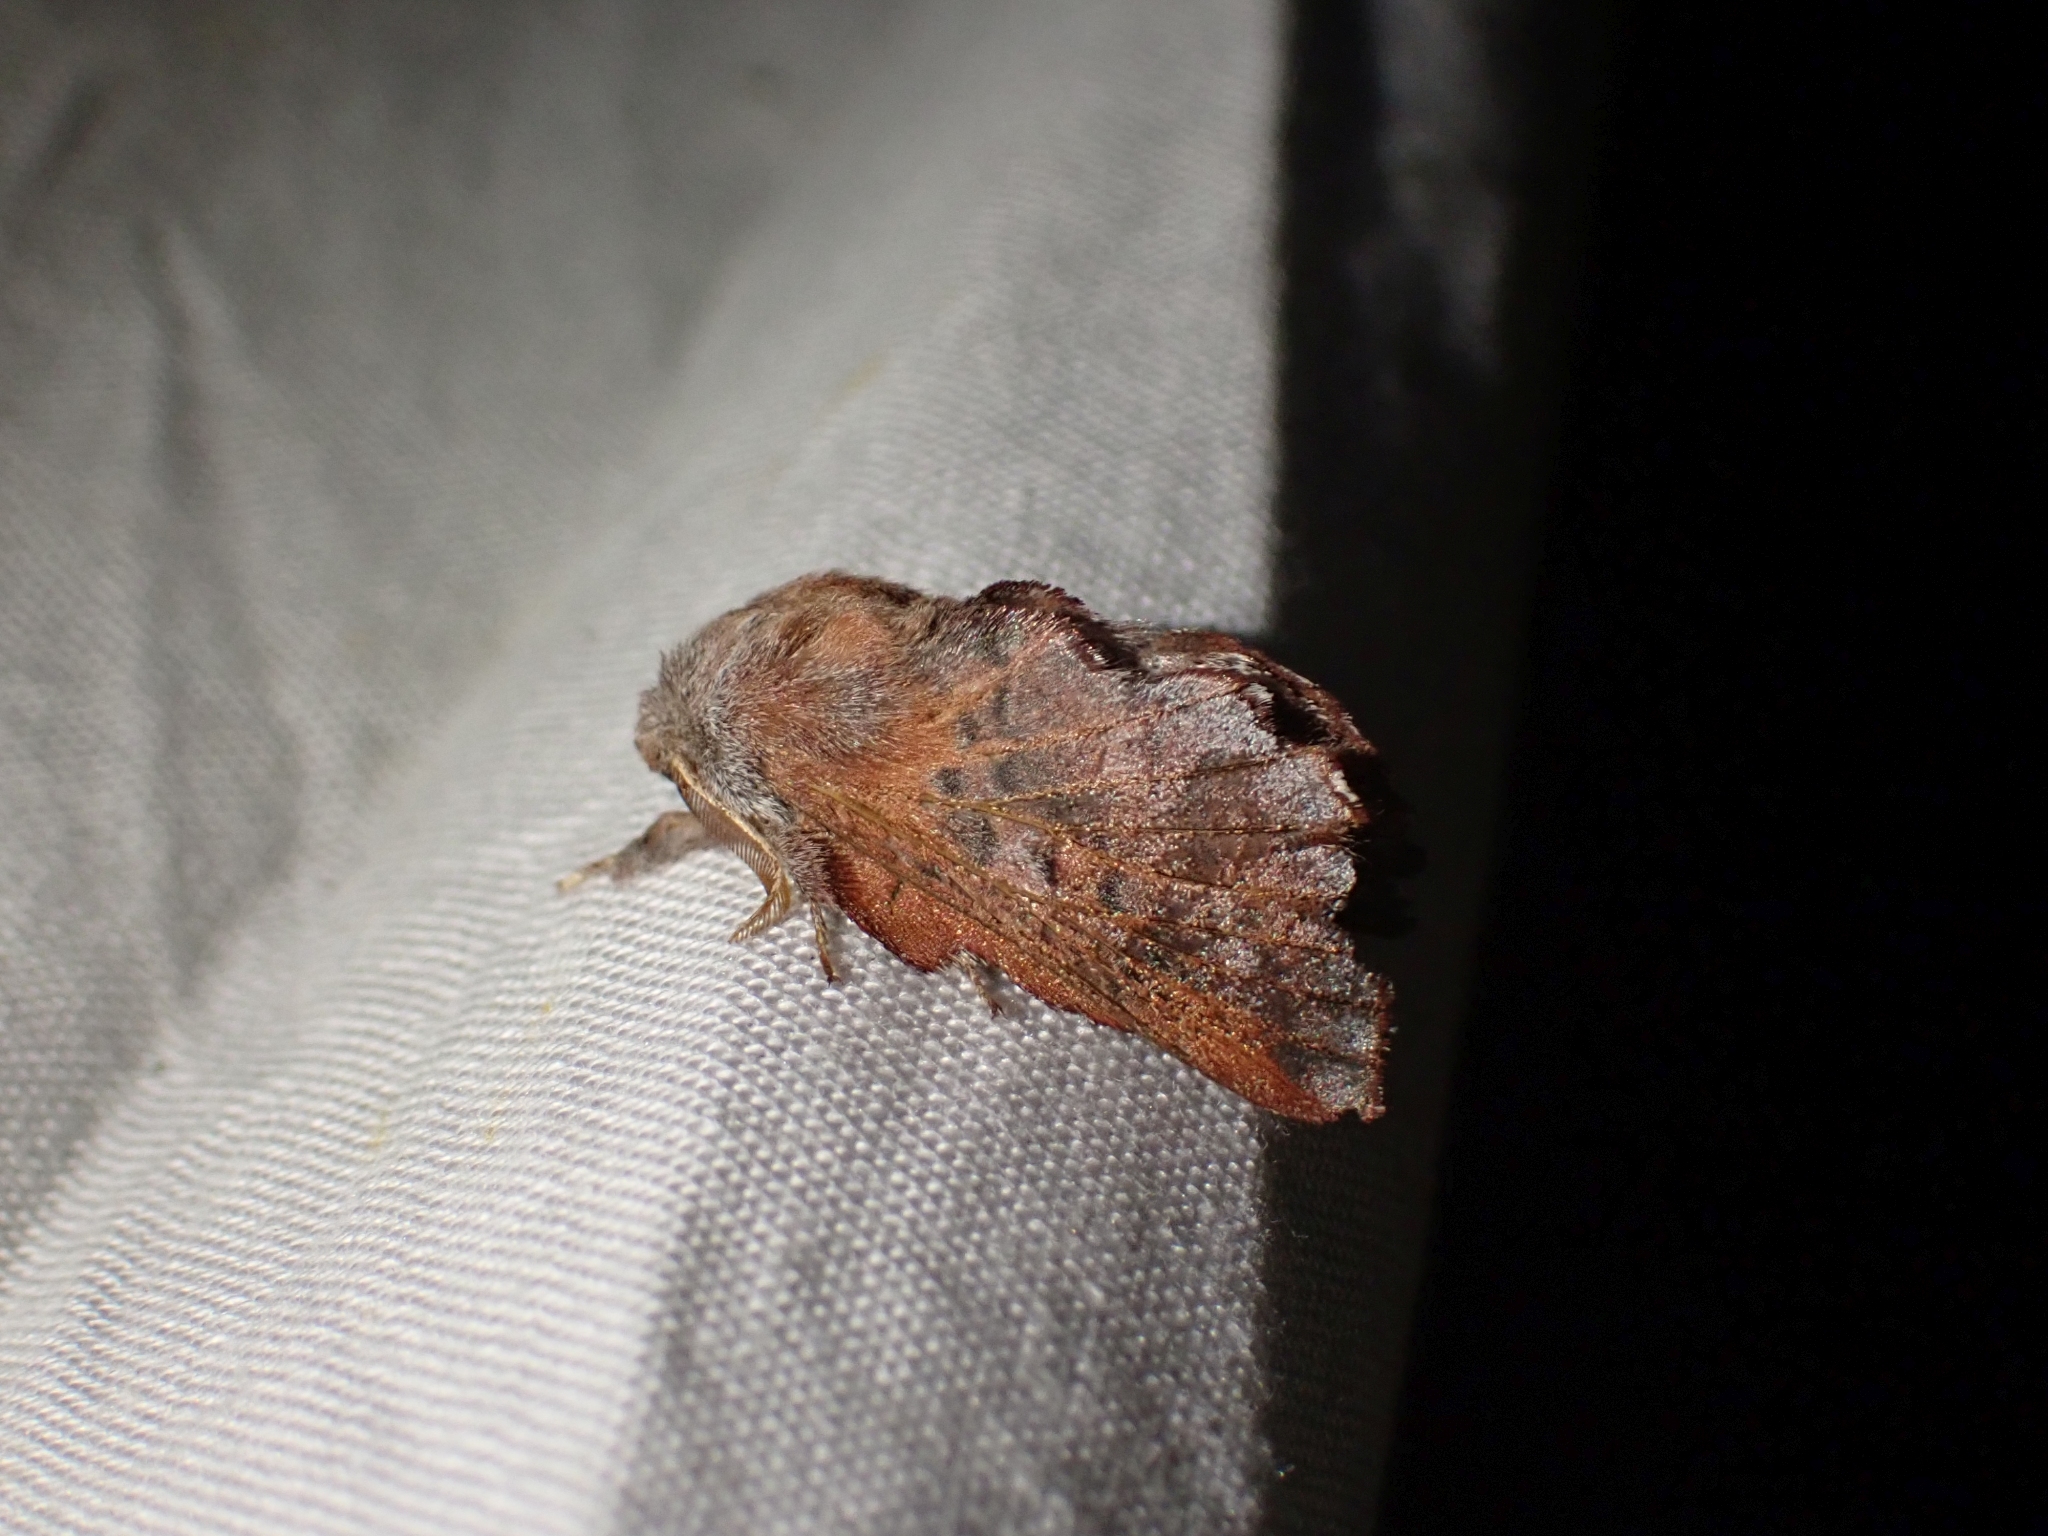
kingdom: Animalia
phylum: Arthropoda
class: Insecta
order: Lepidoptera
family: Lasiocampidae
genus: Phyllodesma
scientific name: Phyllodesma americana
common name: American lappet moth
